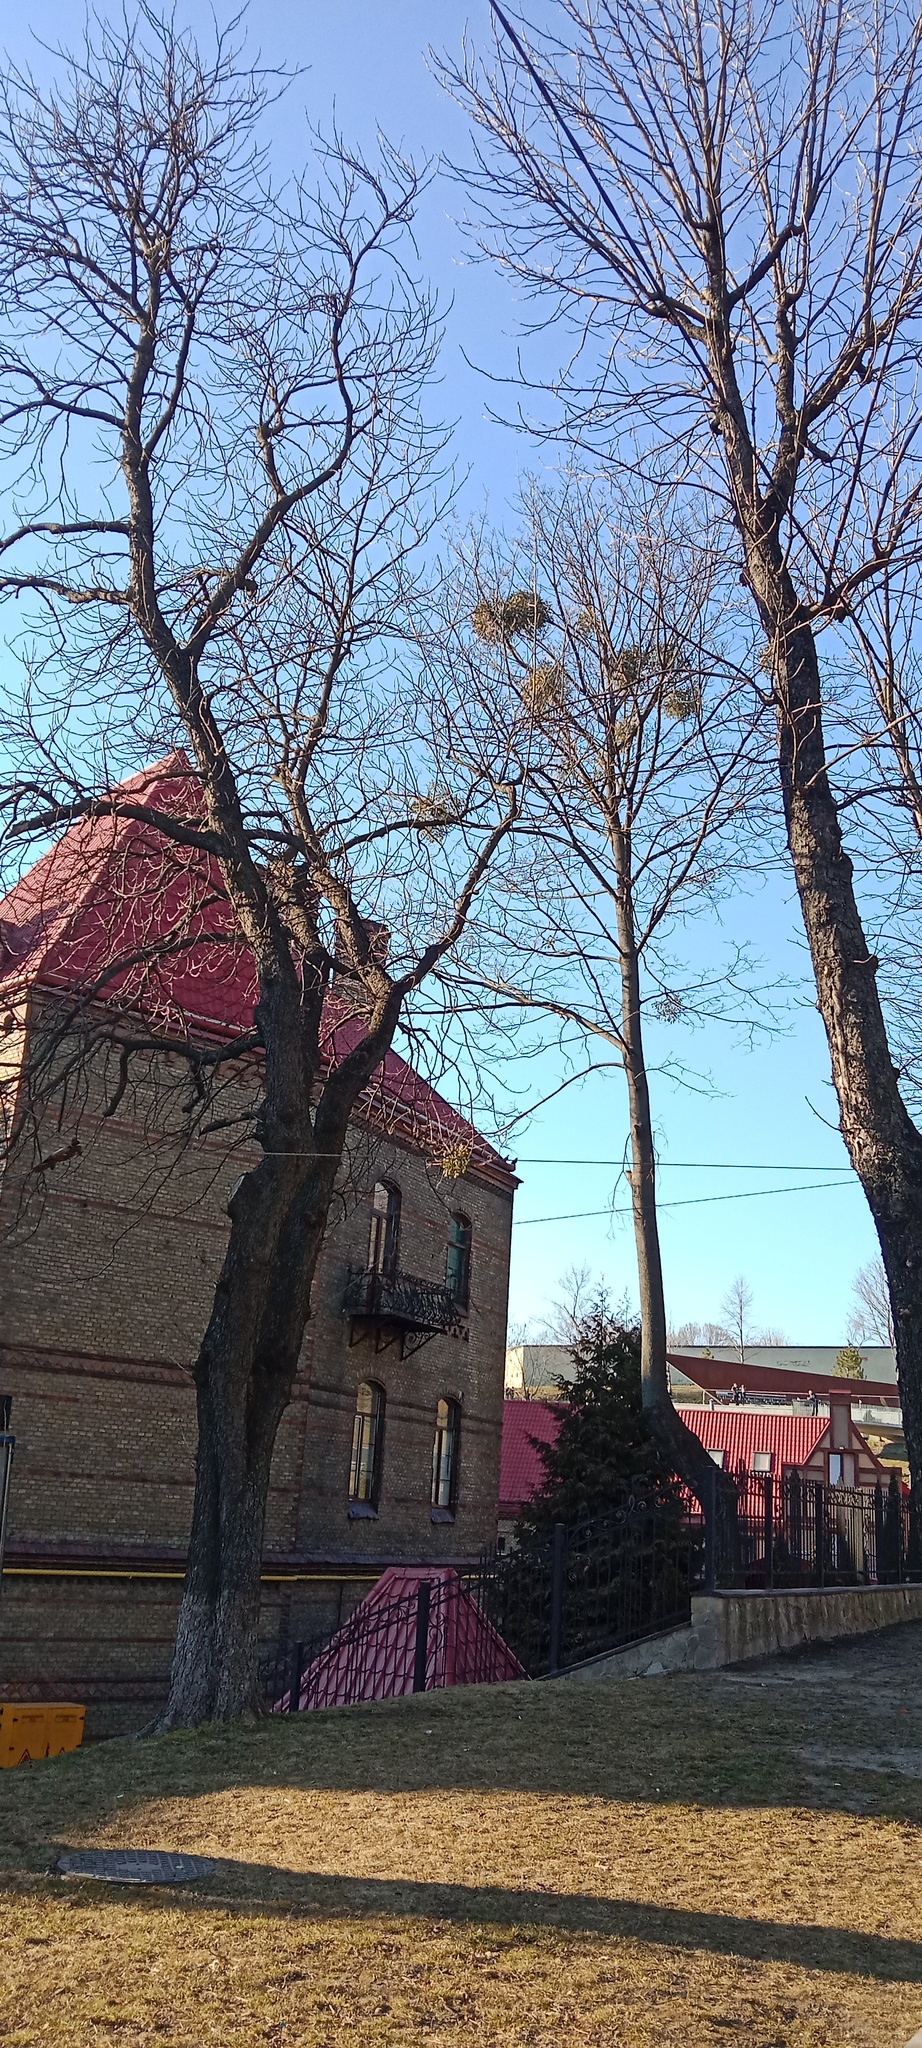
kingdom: Plantae
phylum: Tracheophyta
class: Magnoliopsida
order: Santalales
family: Viscaceae
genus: Viscum
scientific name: Viscum album
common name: Mistletoe
